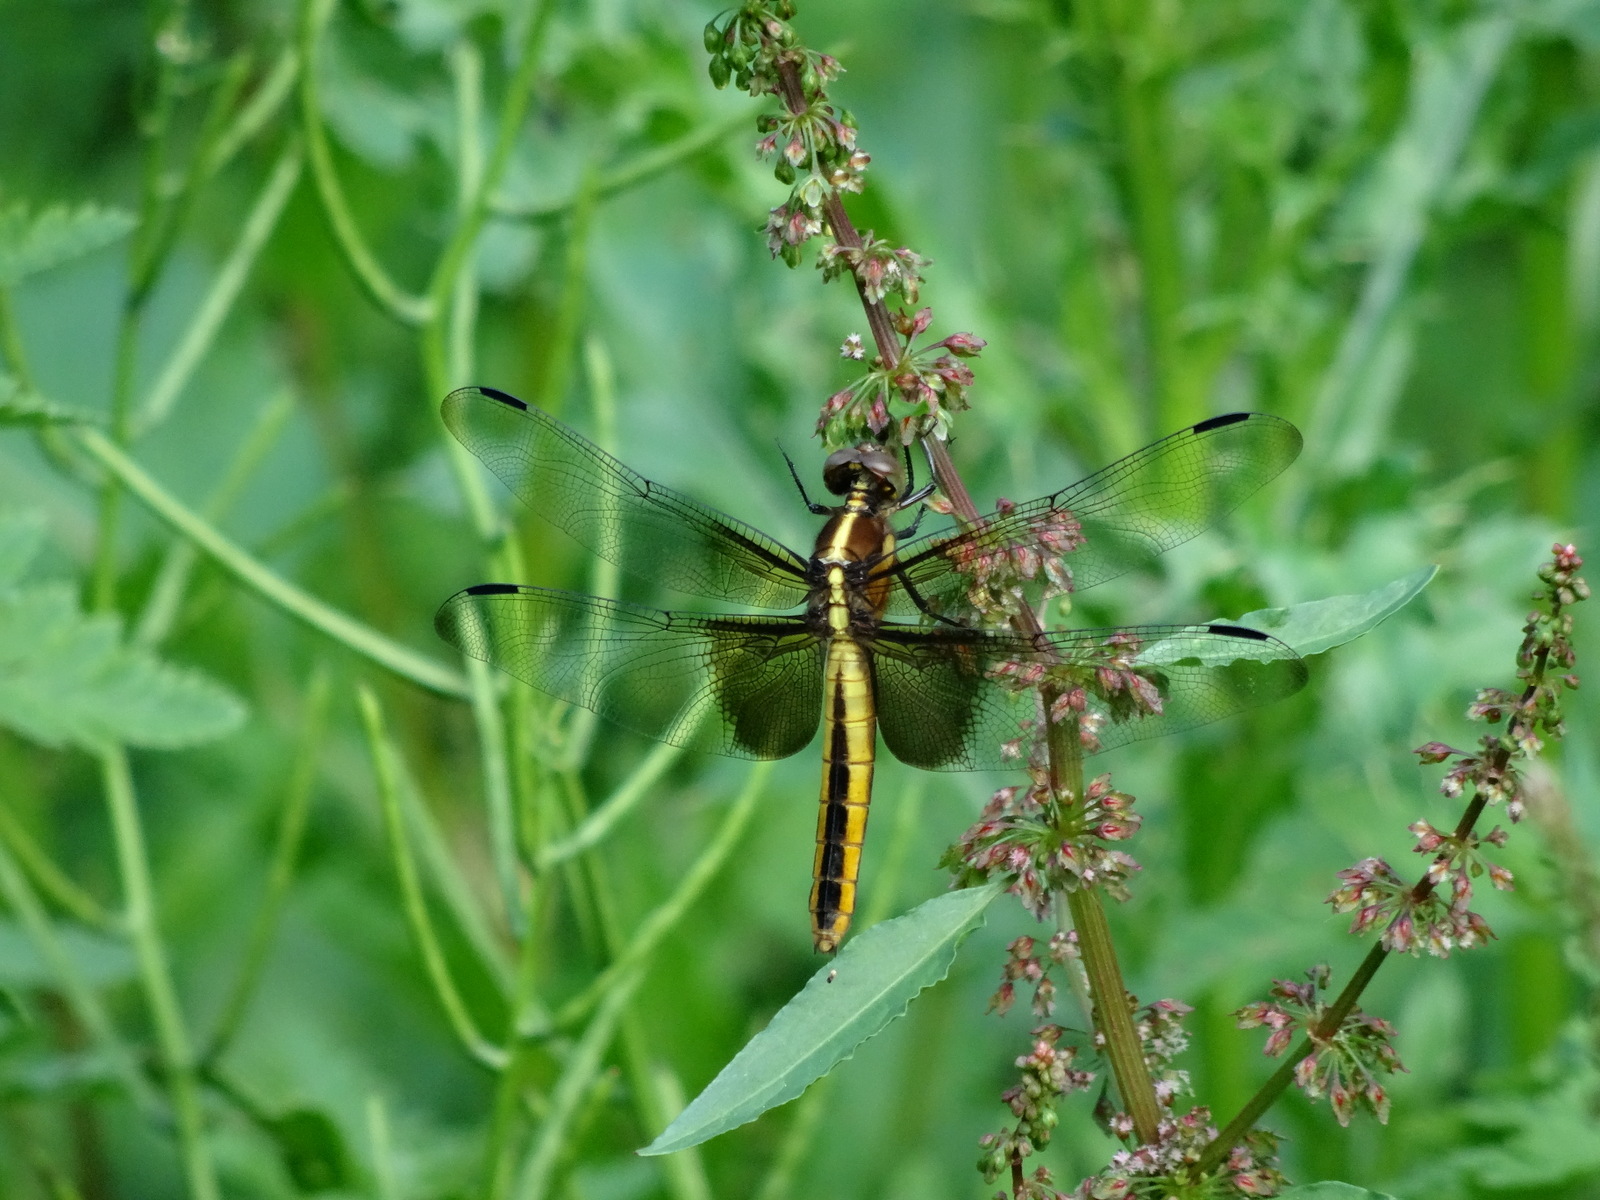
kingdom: Animalia
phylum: Arthropoda
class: Insecta
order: Odonata
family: Libellulidae
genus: Libellula
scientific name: Libellula luctuosa
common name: Widow skimmer
